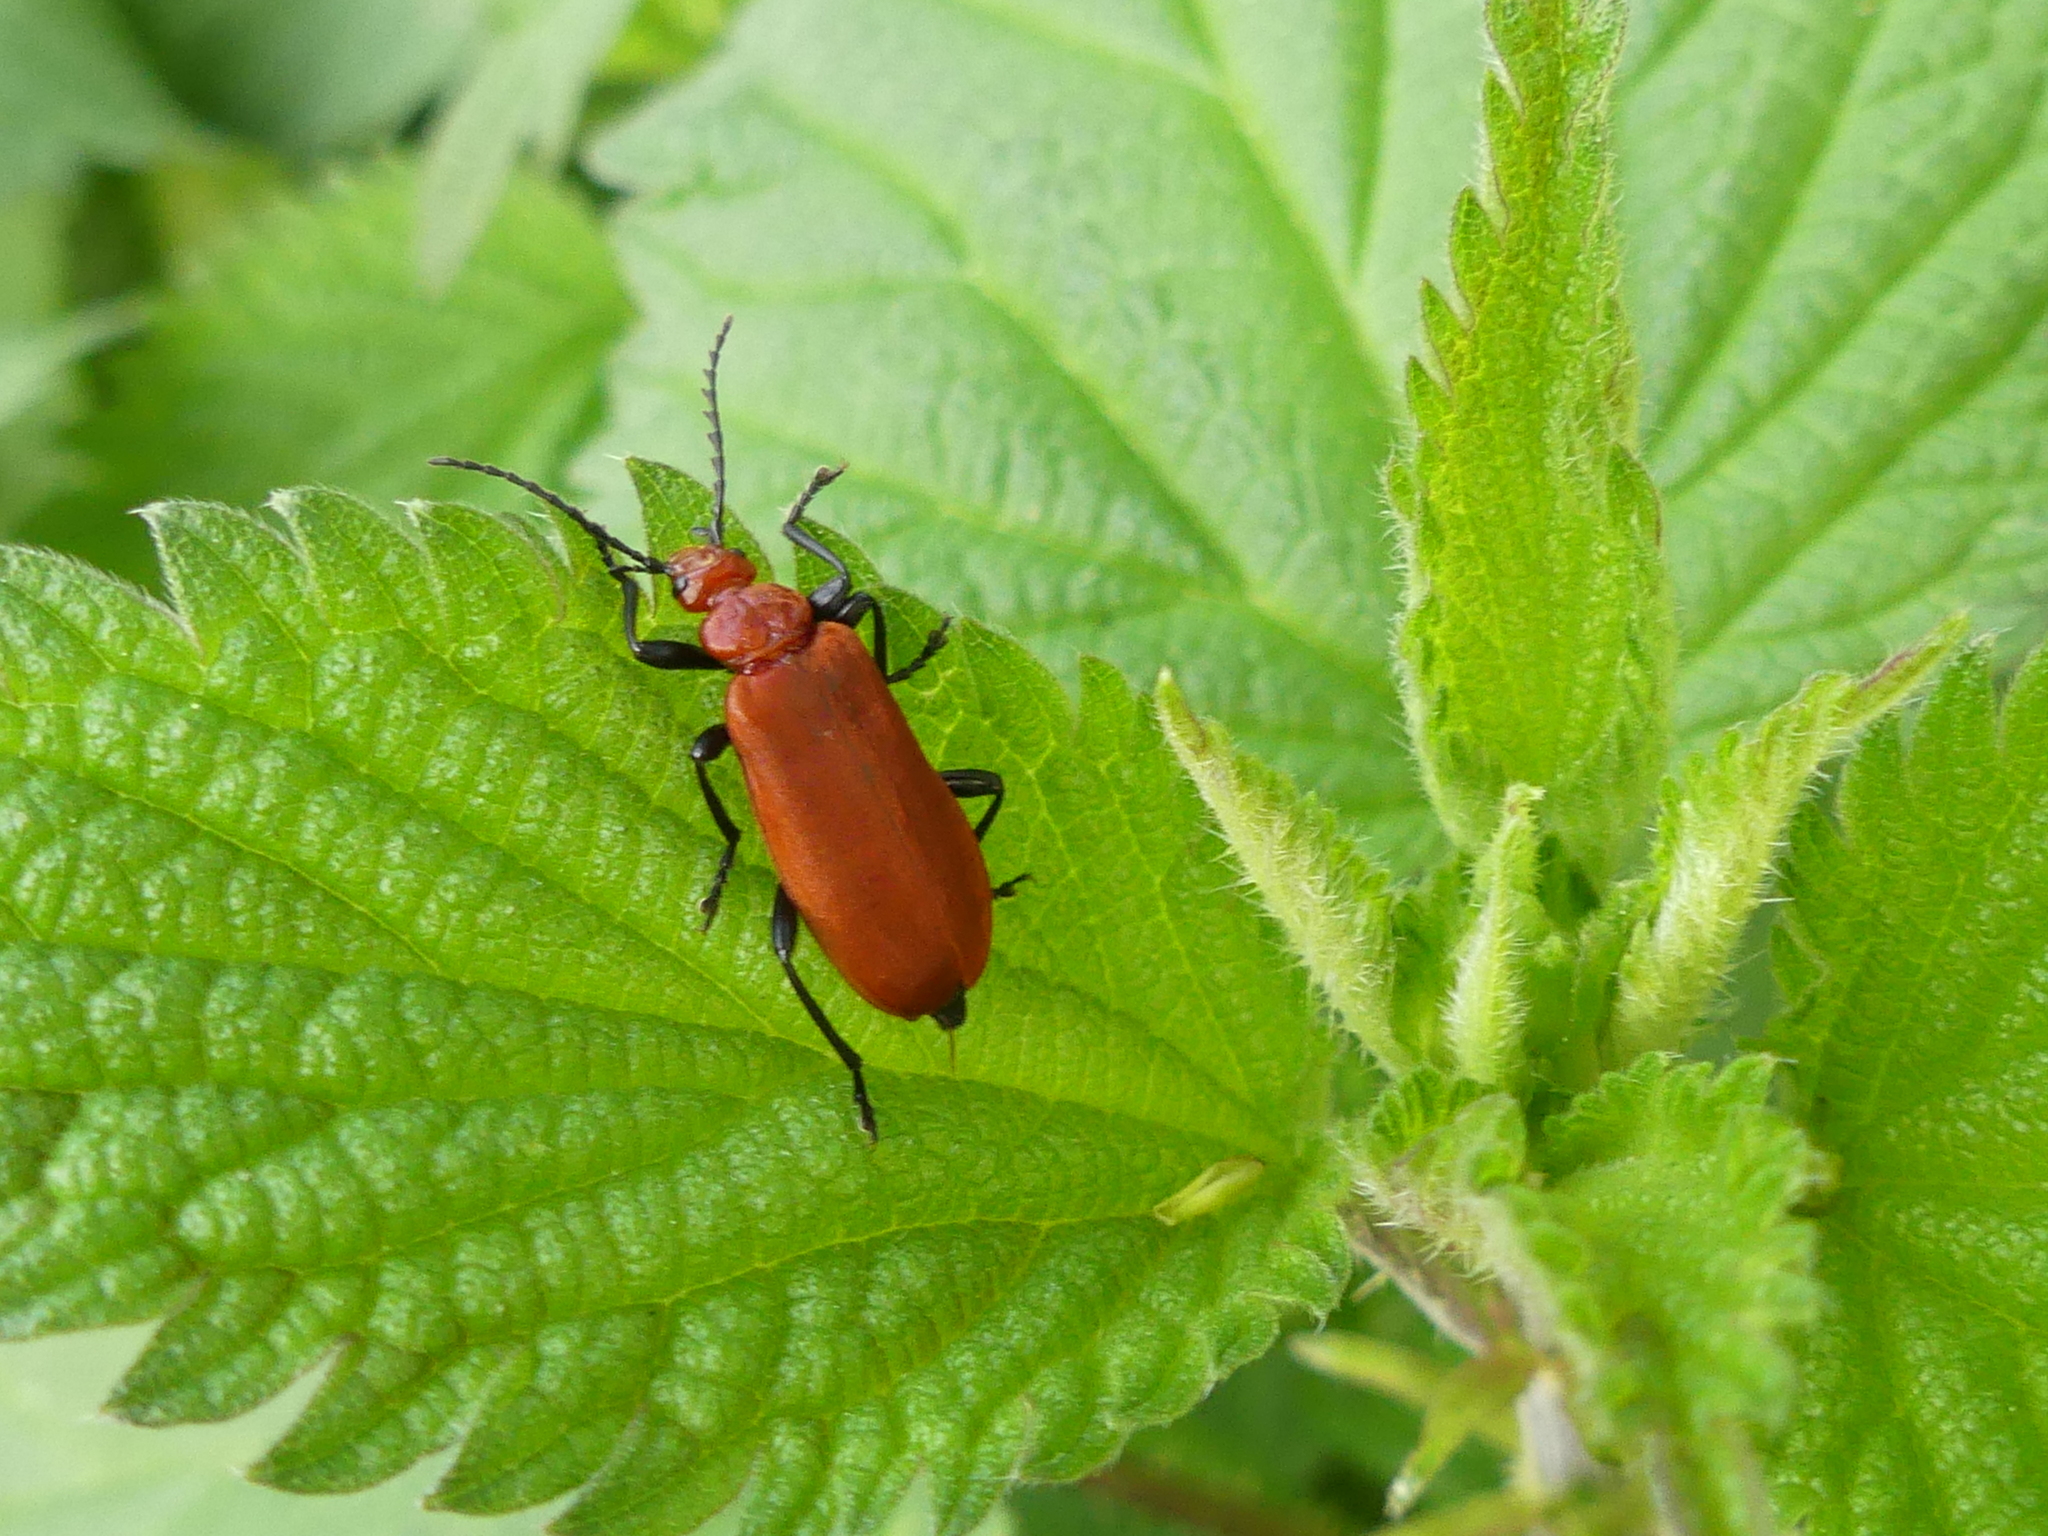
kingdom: Animalia
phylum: Arthropoda
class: Insecta
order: Coleoptera
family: Pyrochroidae
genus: Pyrochroa
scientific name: Pyrochroa serraticornis
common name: Red-headed cardinal beetle
